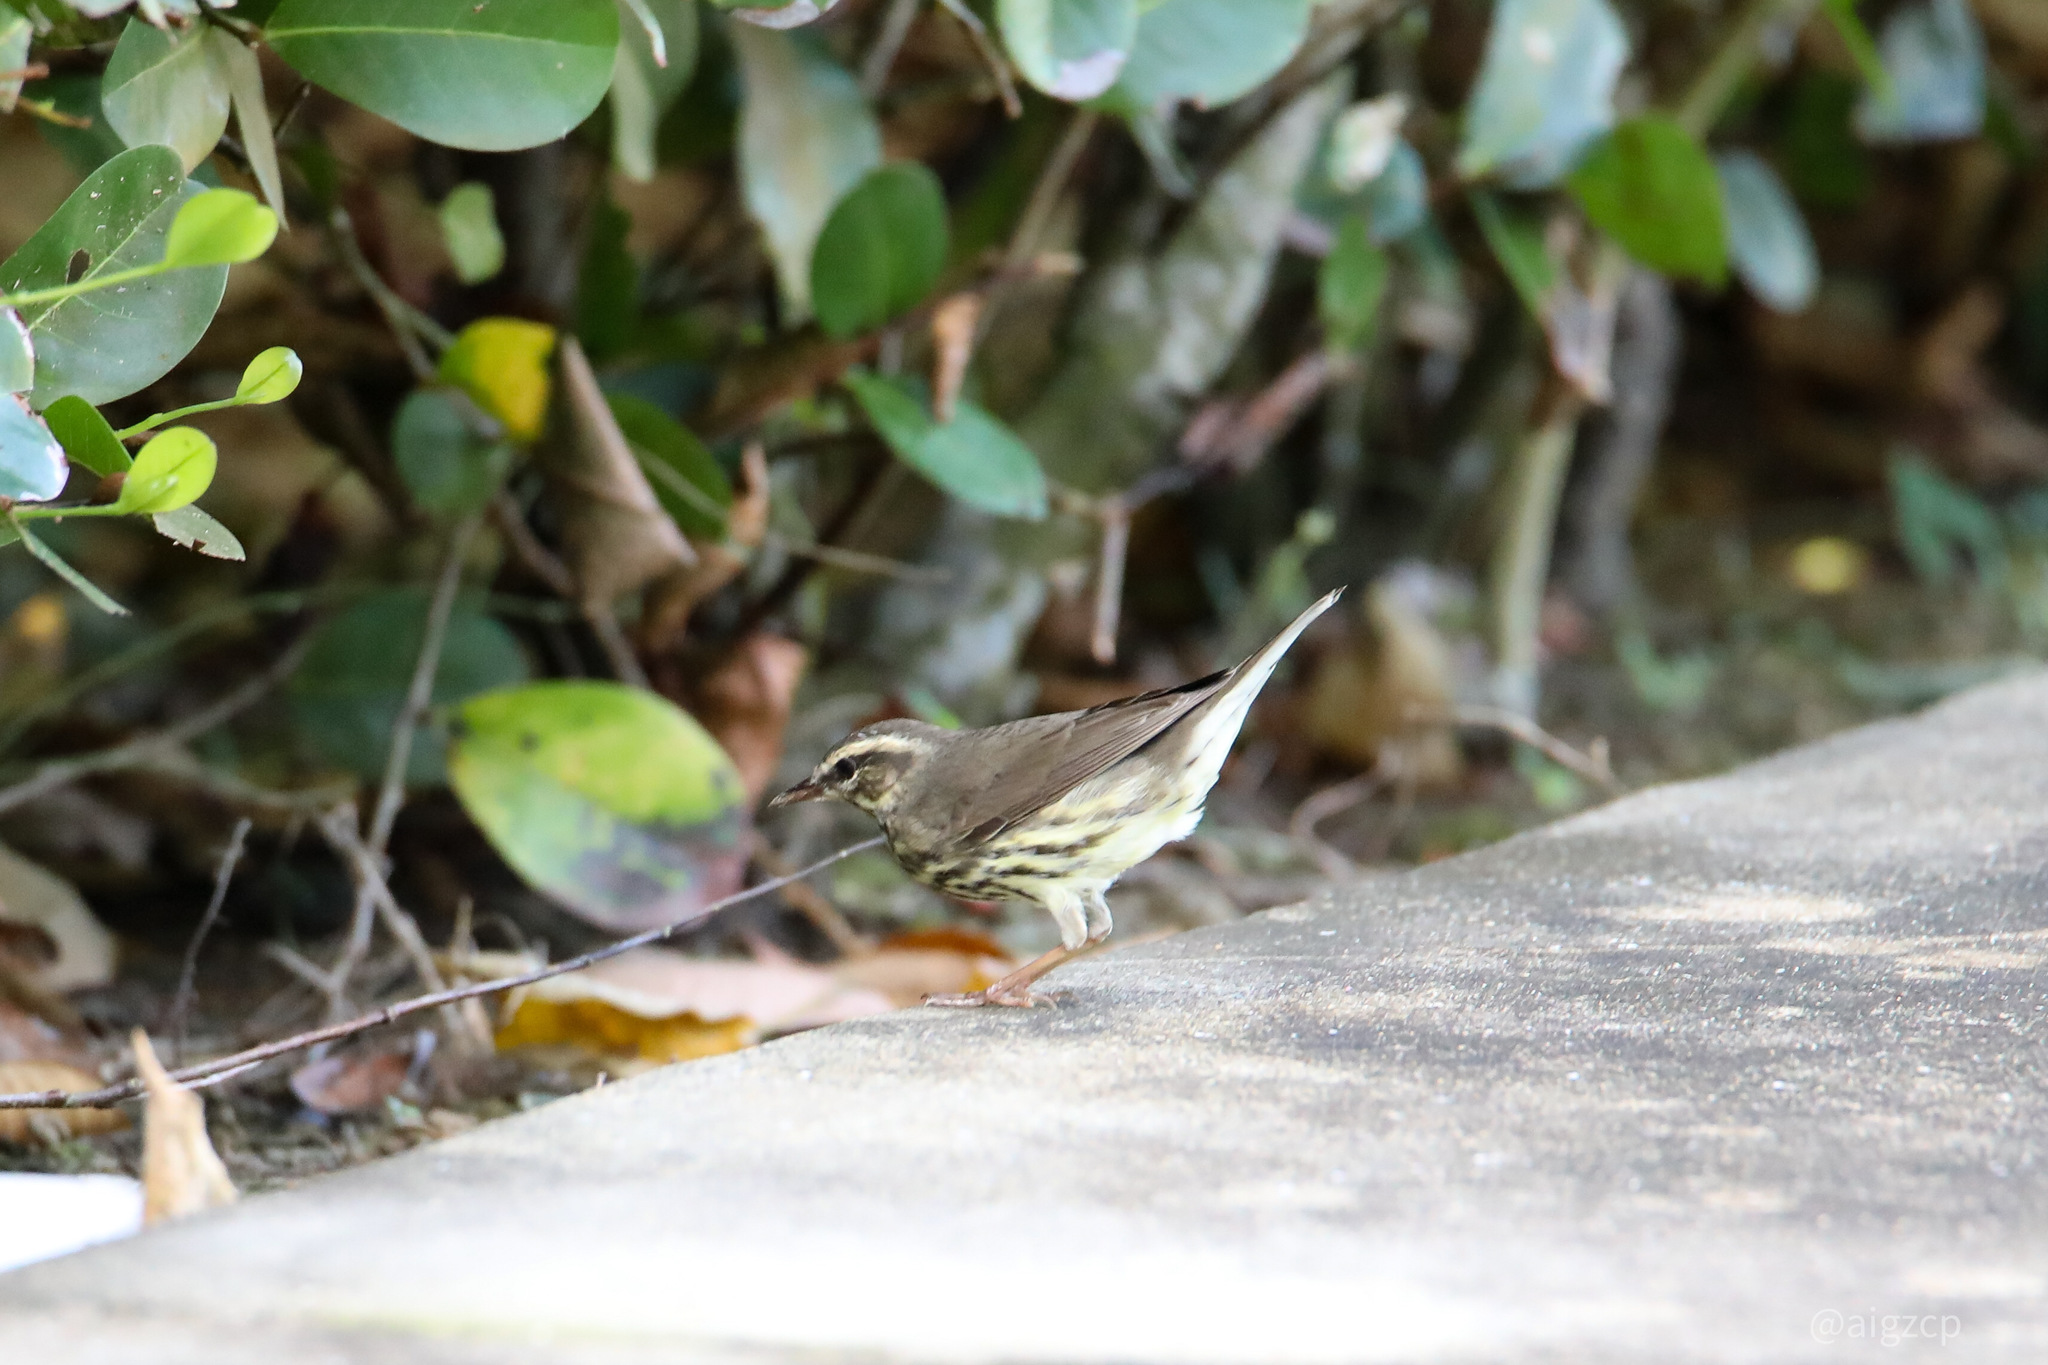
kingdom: Animalia
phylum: Chordata
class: Aves
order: Passeriformes
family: Parulidae
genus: Parkesia
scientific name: Parkesia noveboracensis
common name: Northern waterthrush
